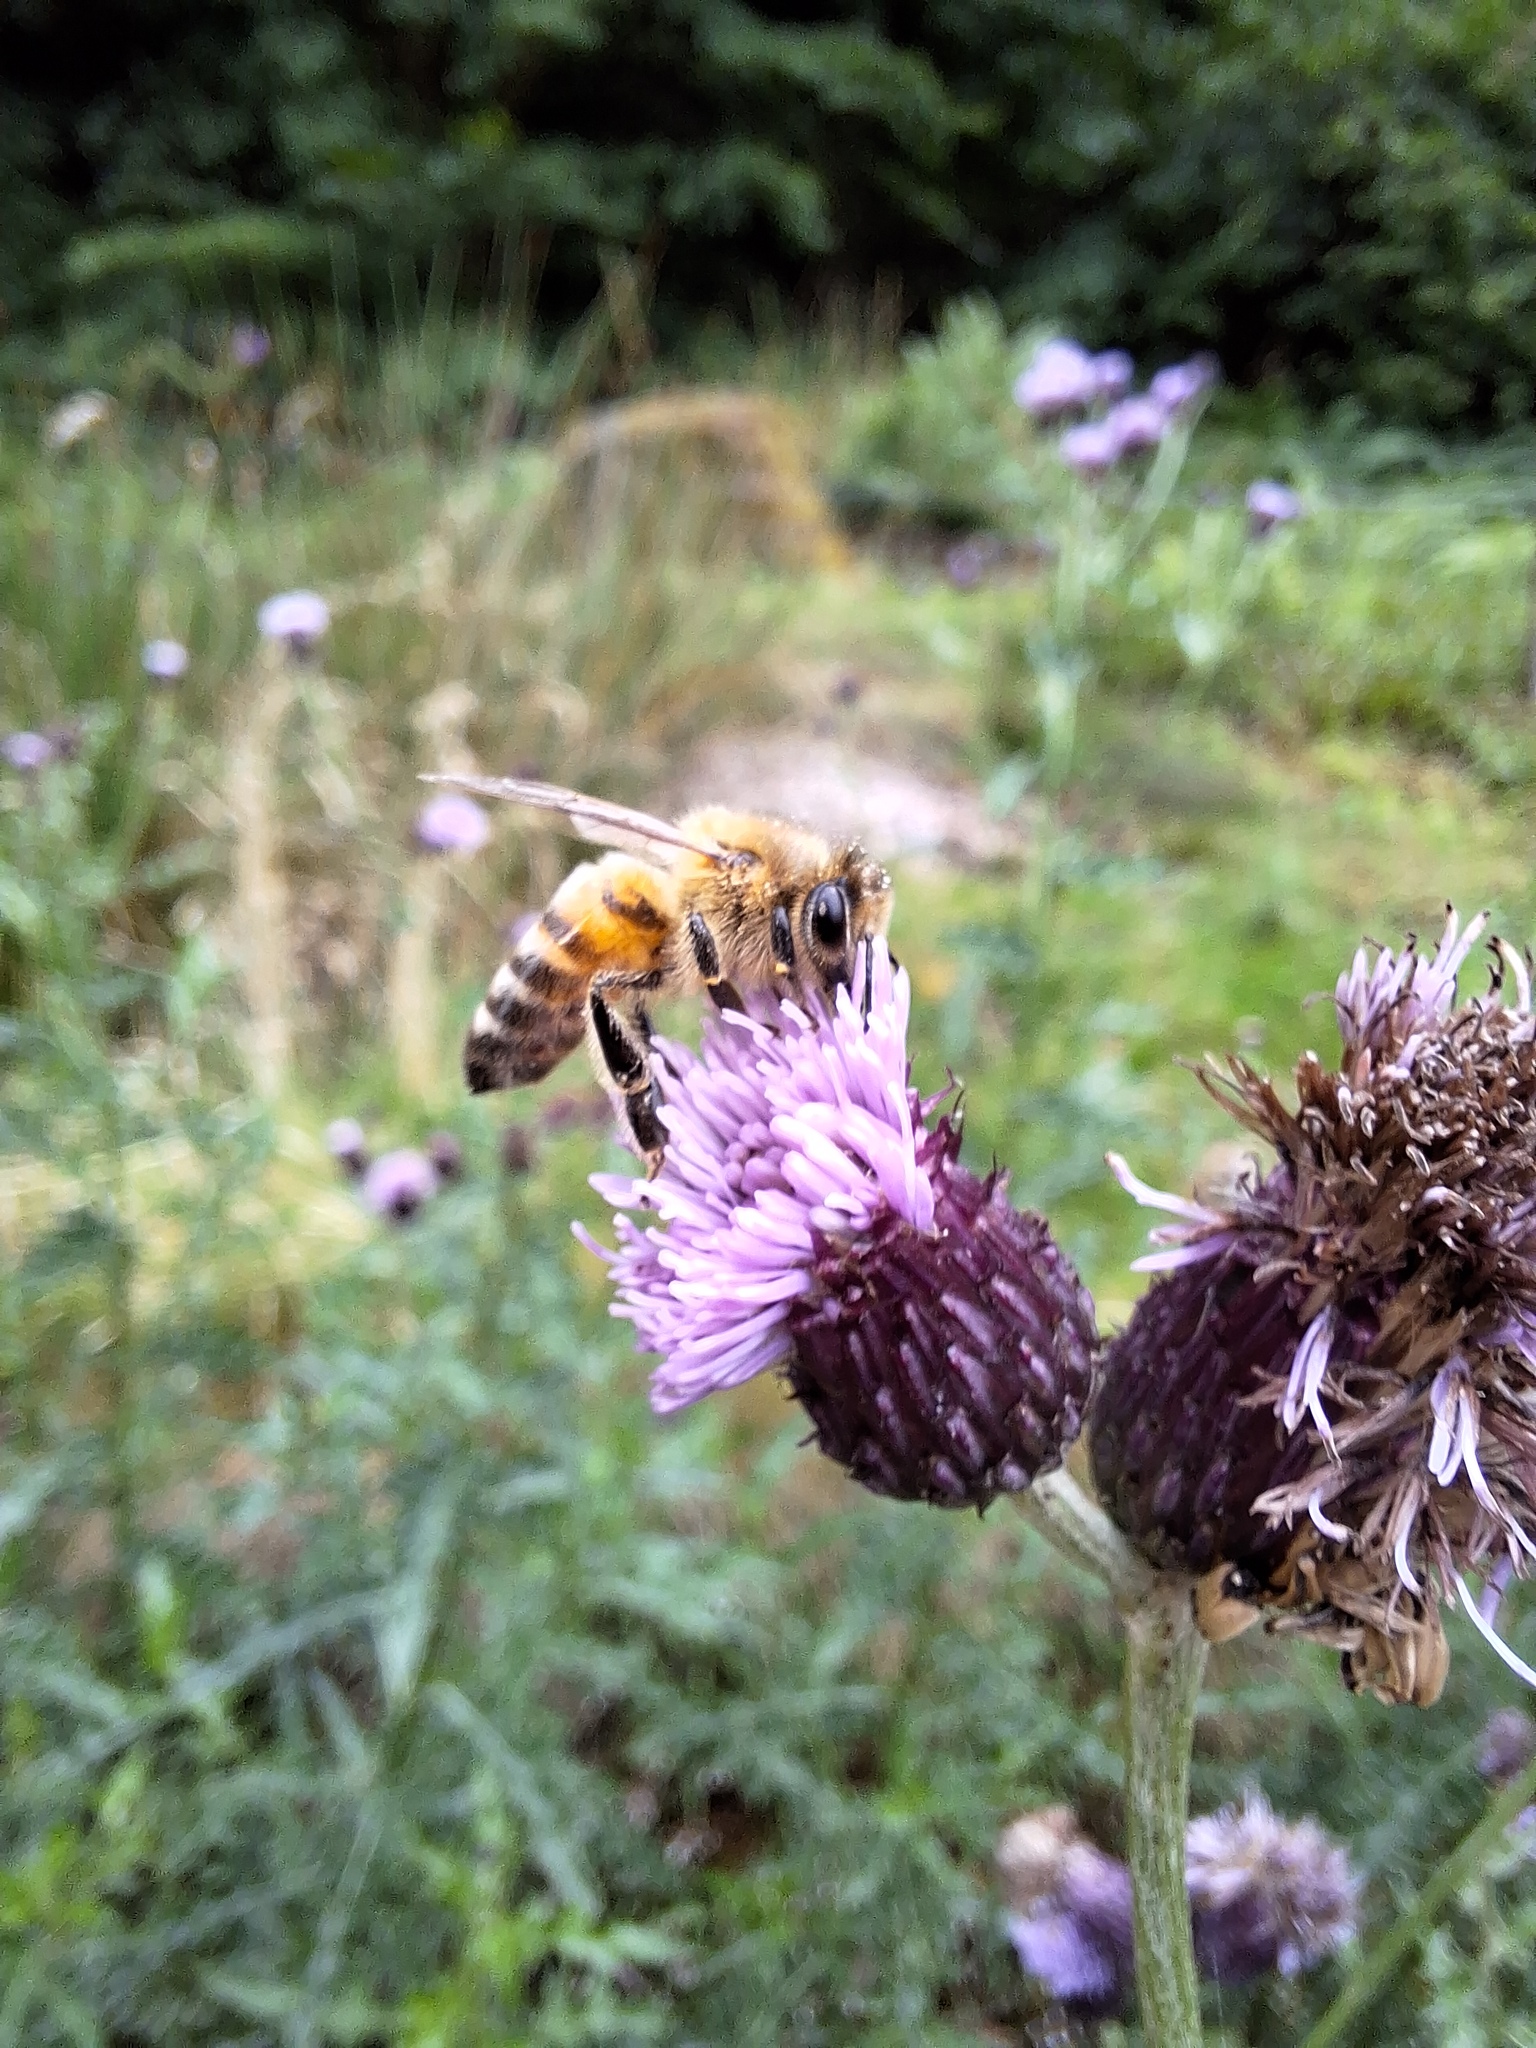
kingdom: Animalia
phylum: Arthropoda
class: Insecta
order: Hymenoptera
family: Apidae
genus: Apis
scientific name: Apis mellifera
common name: Honey bee
